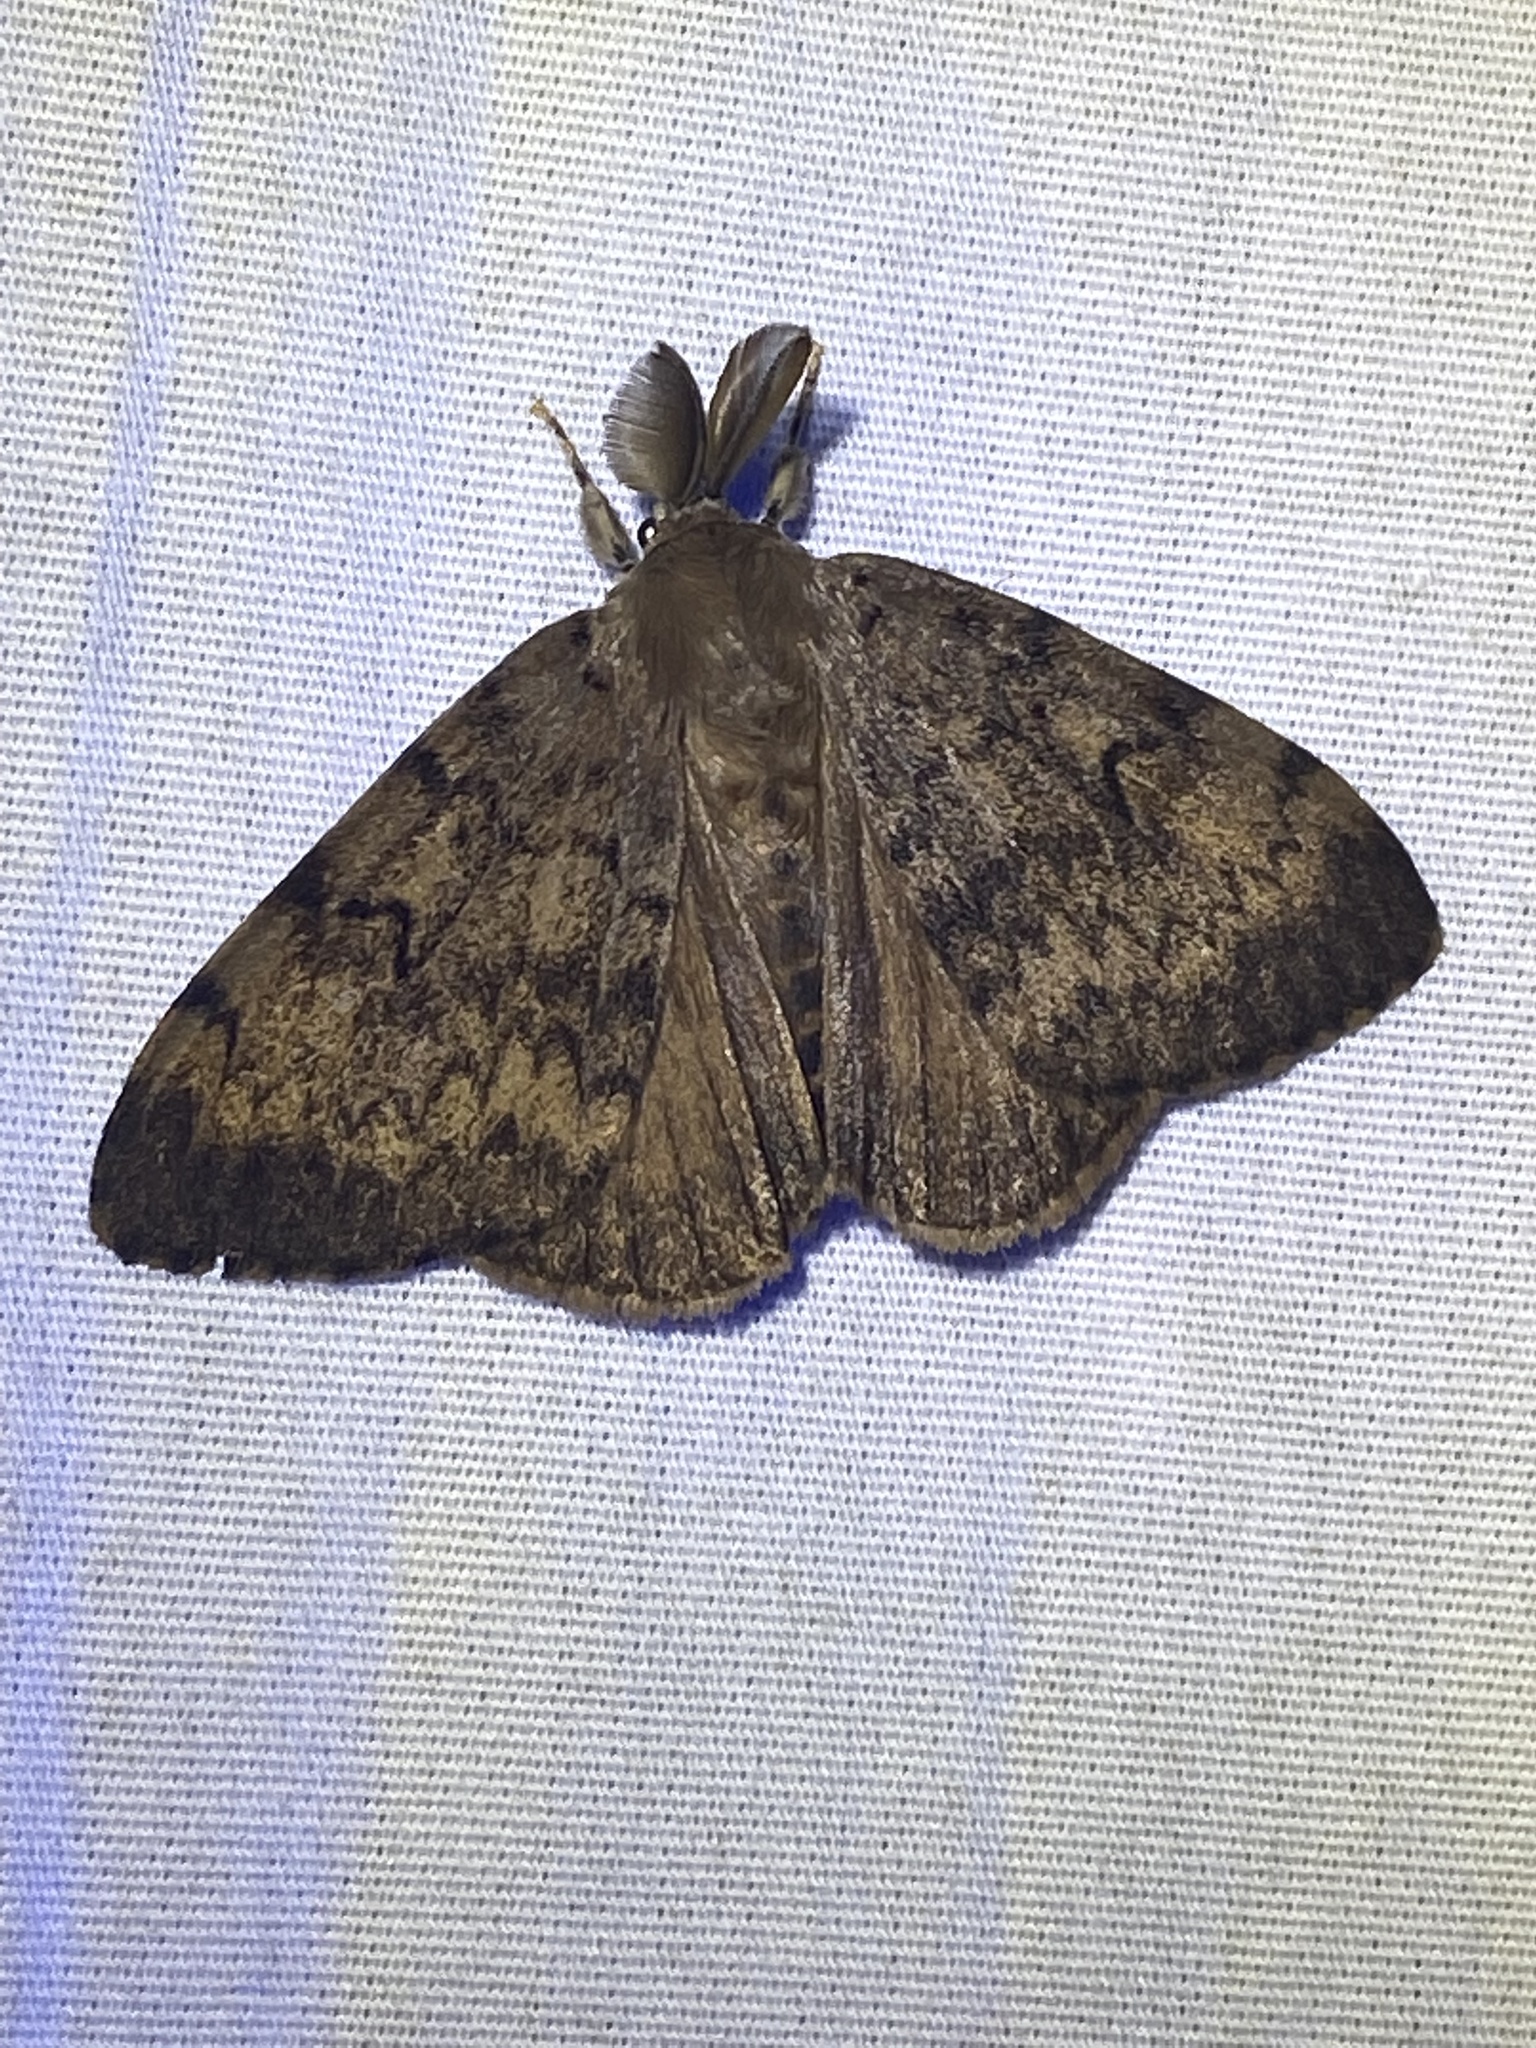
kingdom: Animalia
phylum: Arthropoda
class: Insecta
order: Lepidoptera
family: Erebidae
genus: Lymantria
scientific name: Lymantria dispar
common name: Gypsy moth
